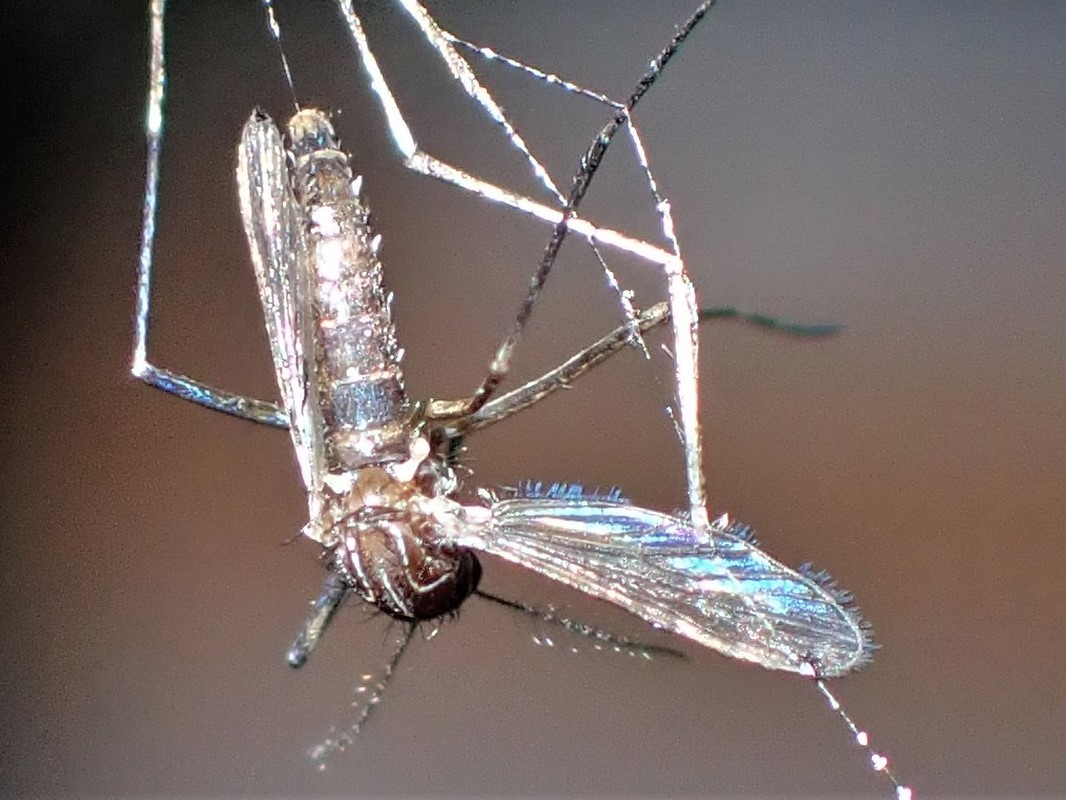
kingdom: Animalia
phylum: Arthropoda
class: Insecta
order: Diptera
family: Culicidae
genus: Aedes
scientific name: Aedes notoscriptus
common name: Australian backyard mosquito
